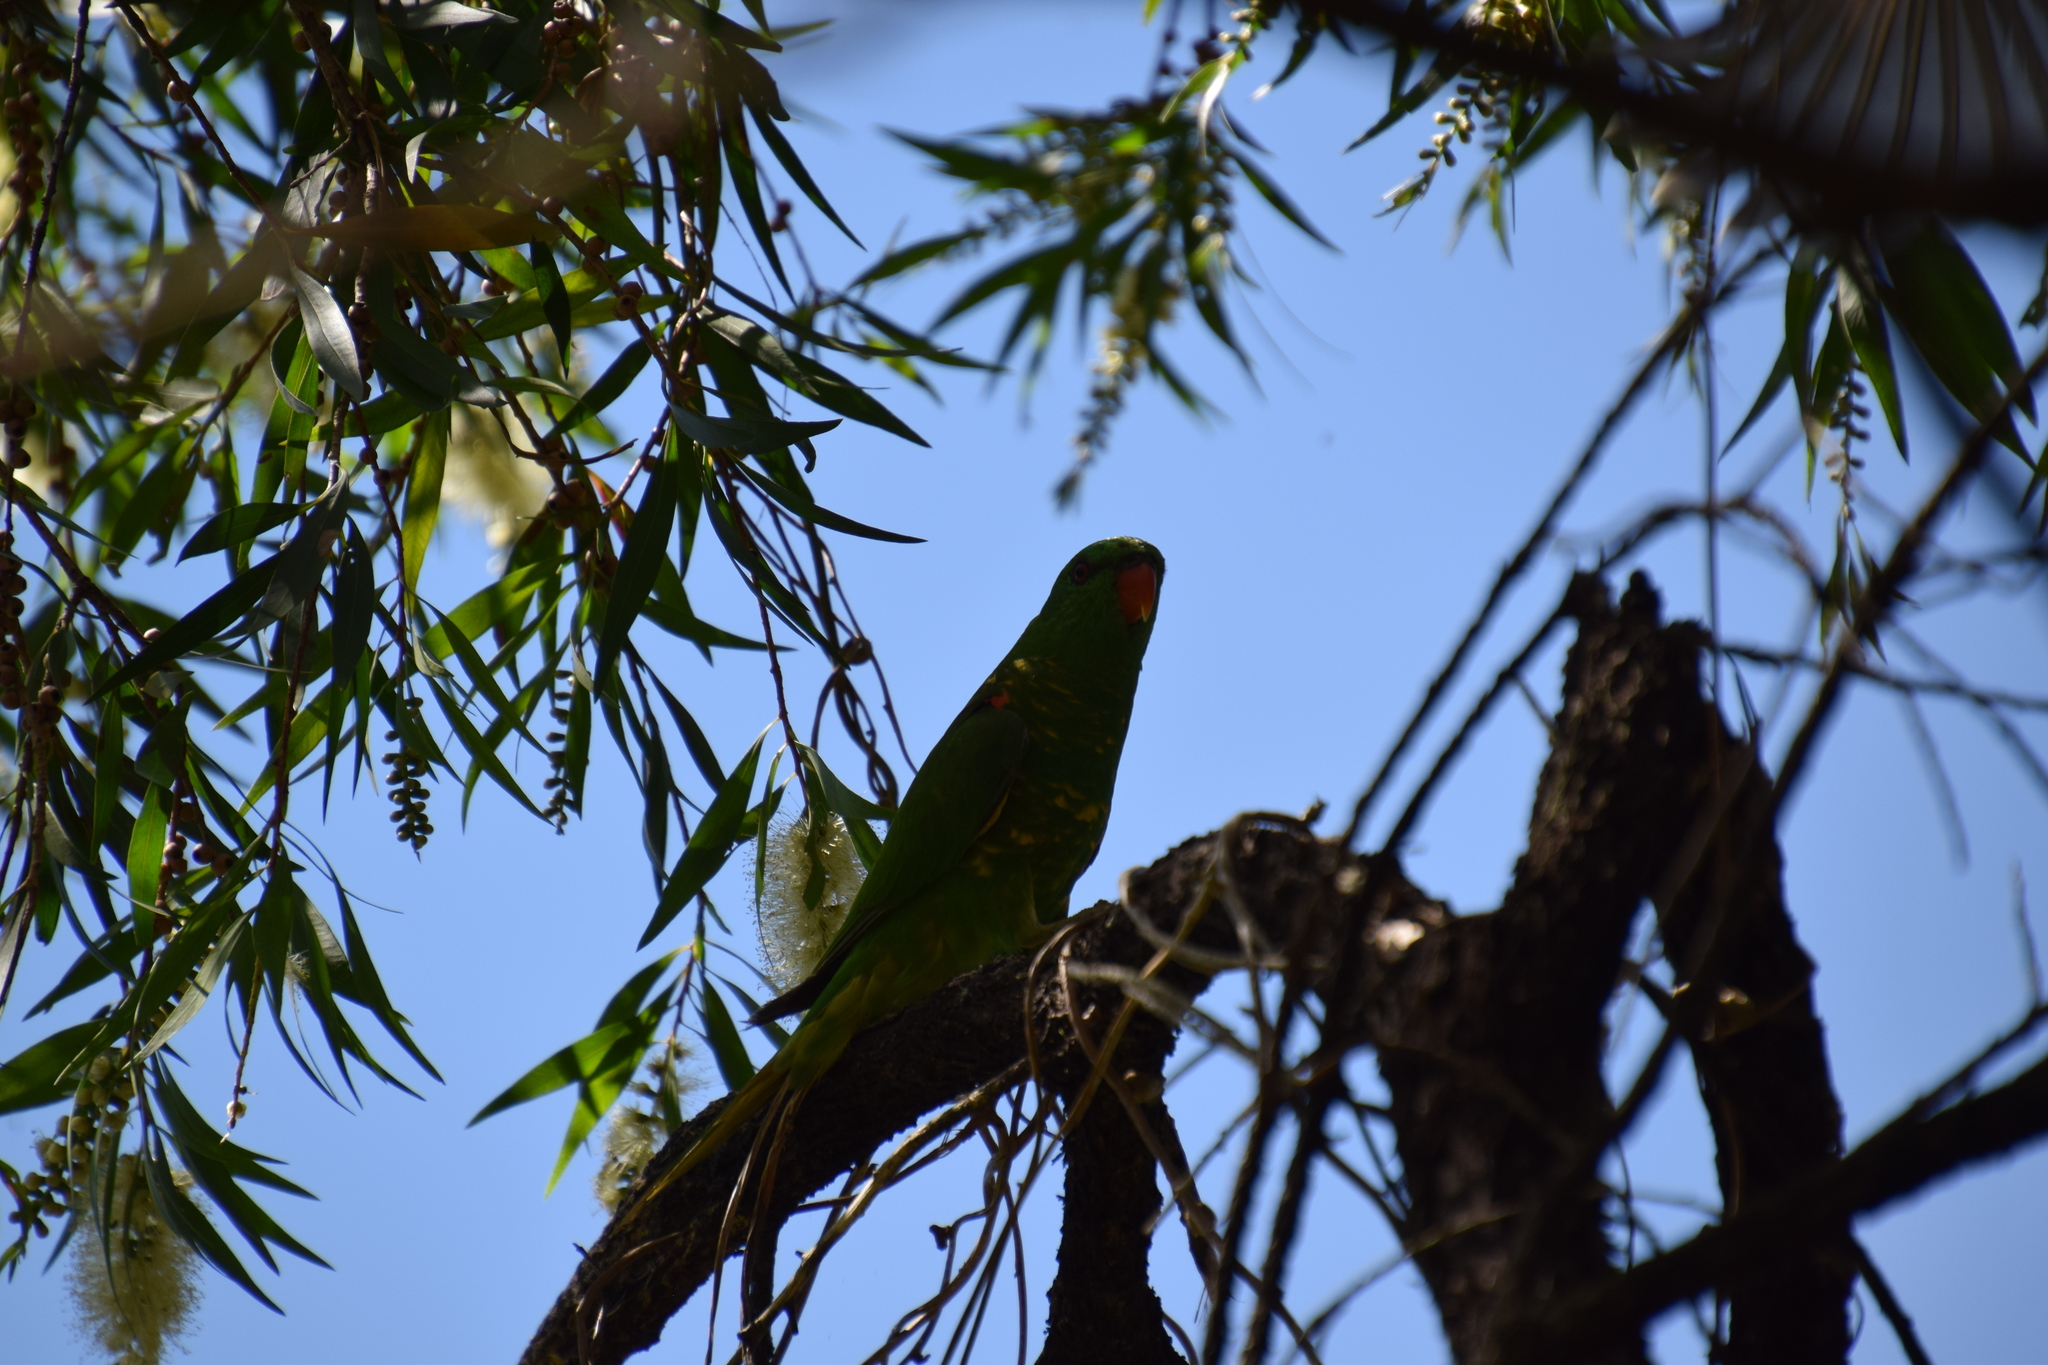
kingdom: Animalia
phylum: Chordata
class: Aves
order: Psittaciformes
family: Psittacidae
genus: Trichoglossus
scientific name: Trichoglossus chlorolepidotus
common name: Scaly-breasted lorikeet
